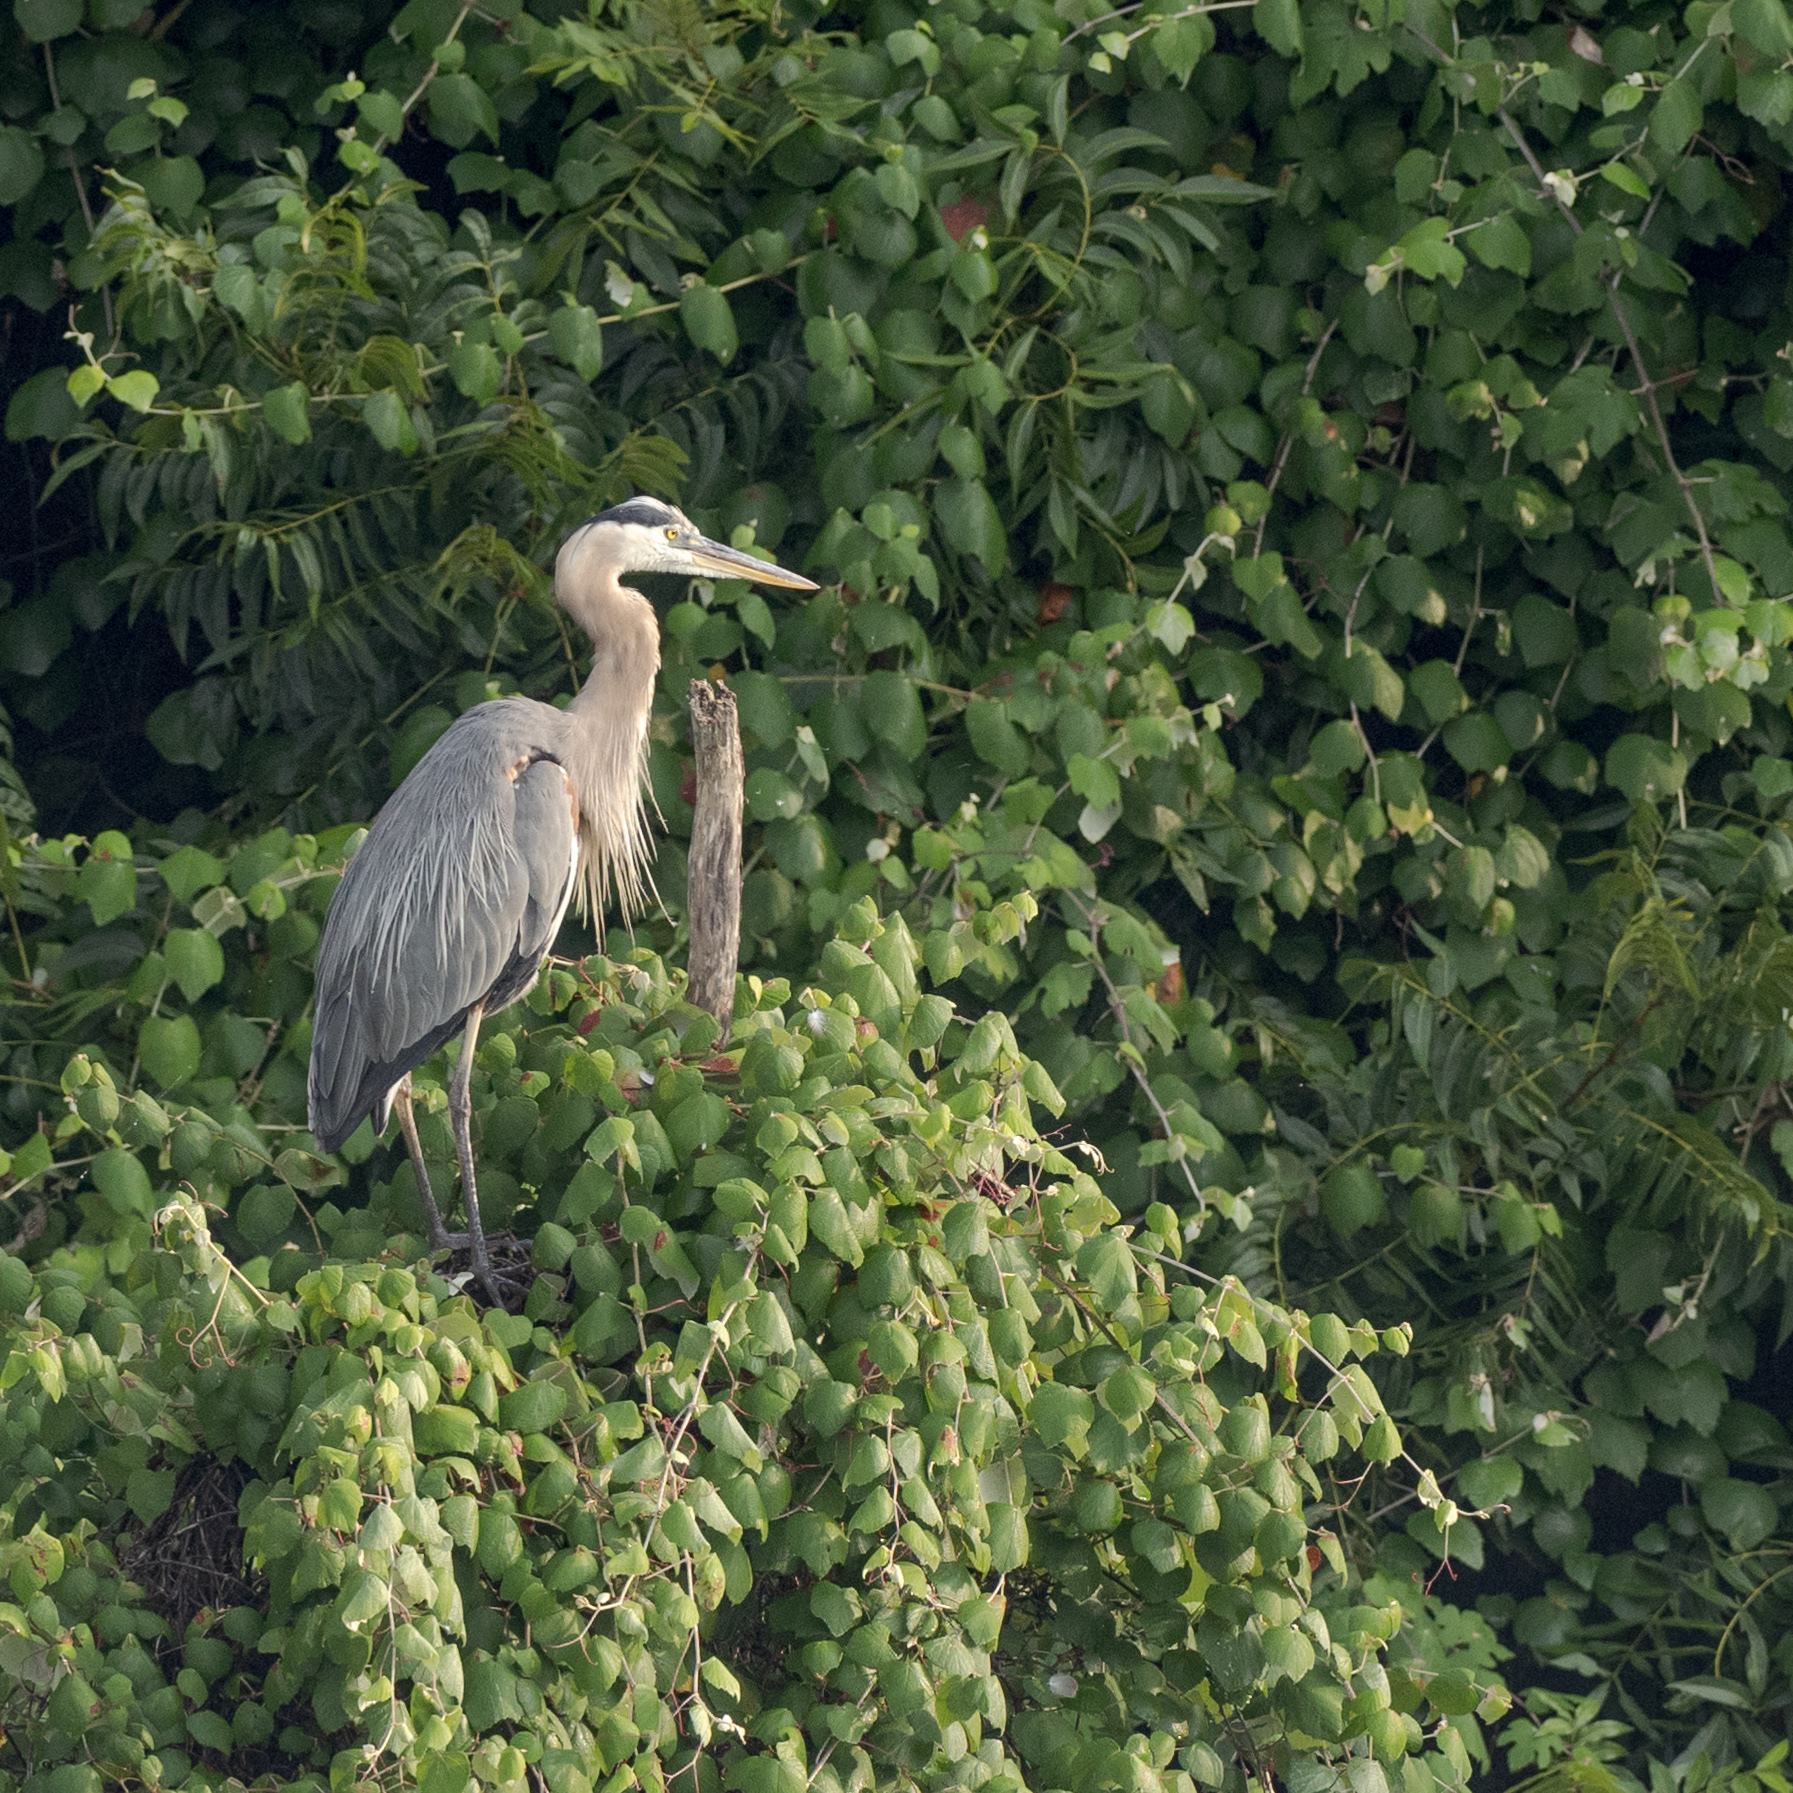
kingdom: Animalia
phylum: Chordata
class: Aves
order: Pelecaniformes
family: Ardeidae
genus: Ardea
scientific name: Ardea herodias
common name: Great blue heron
